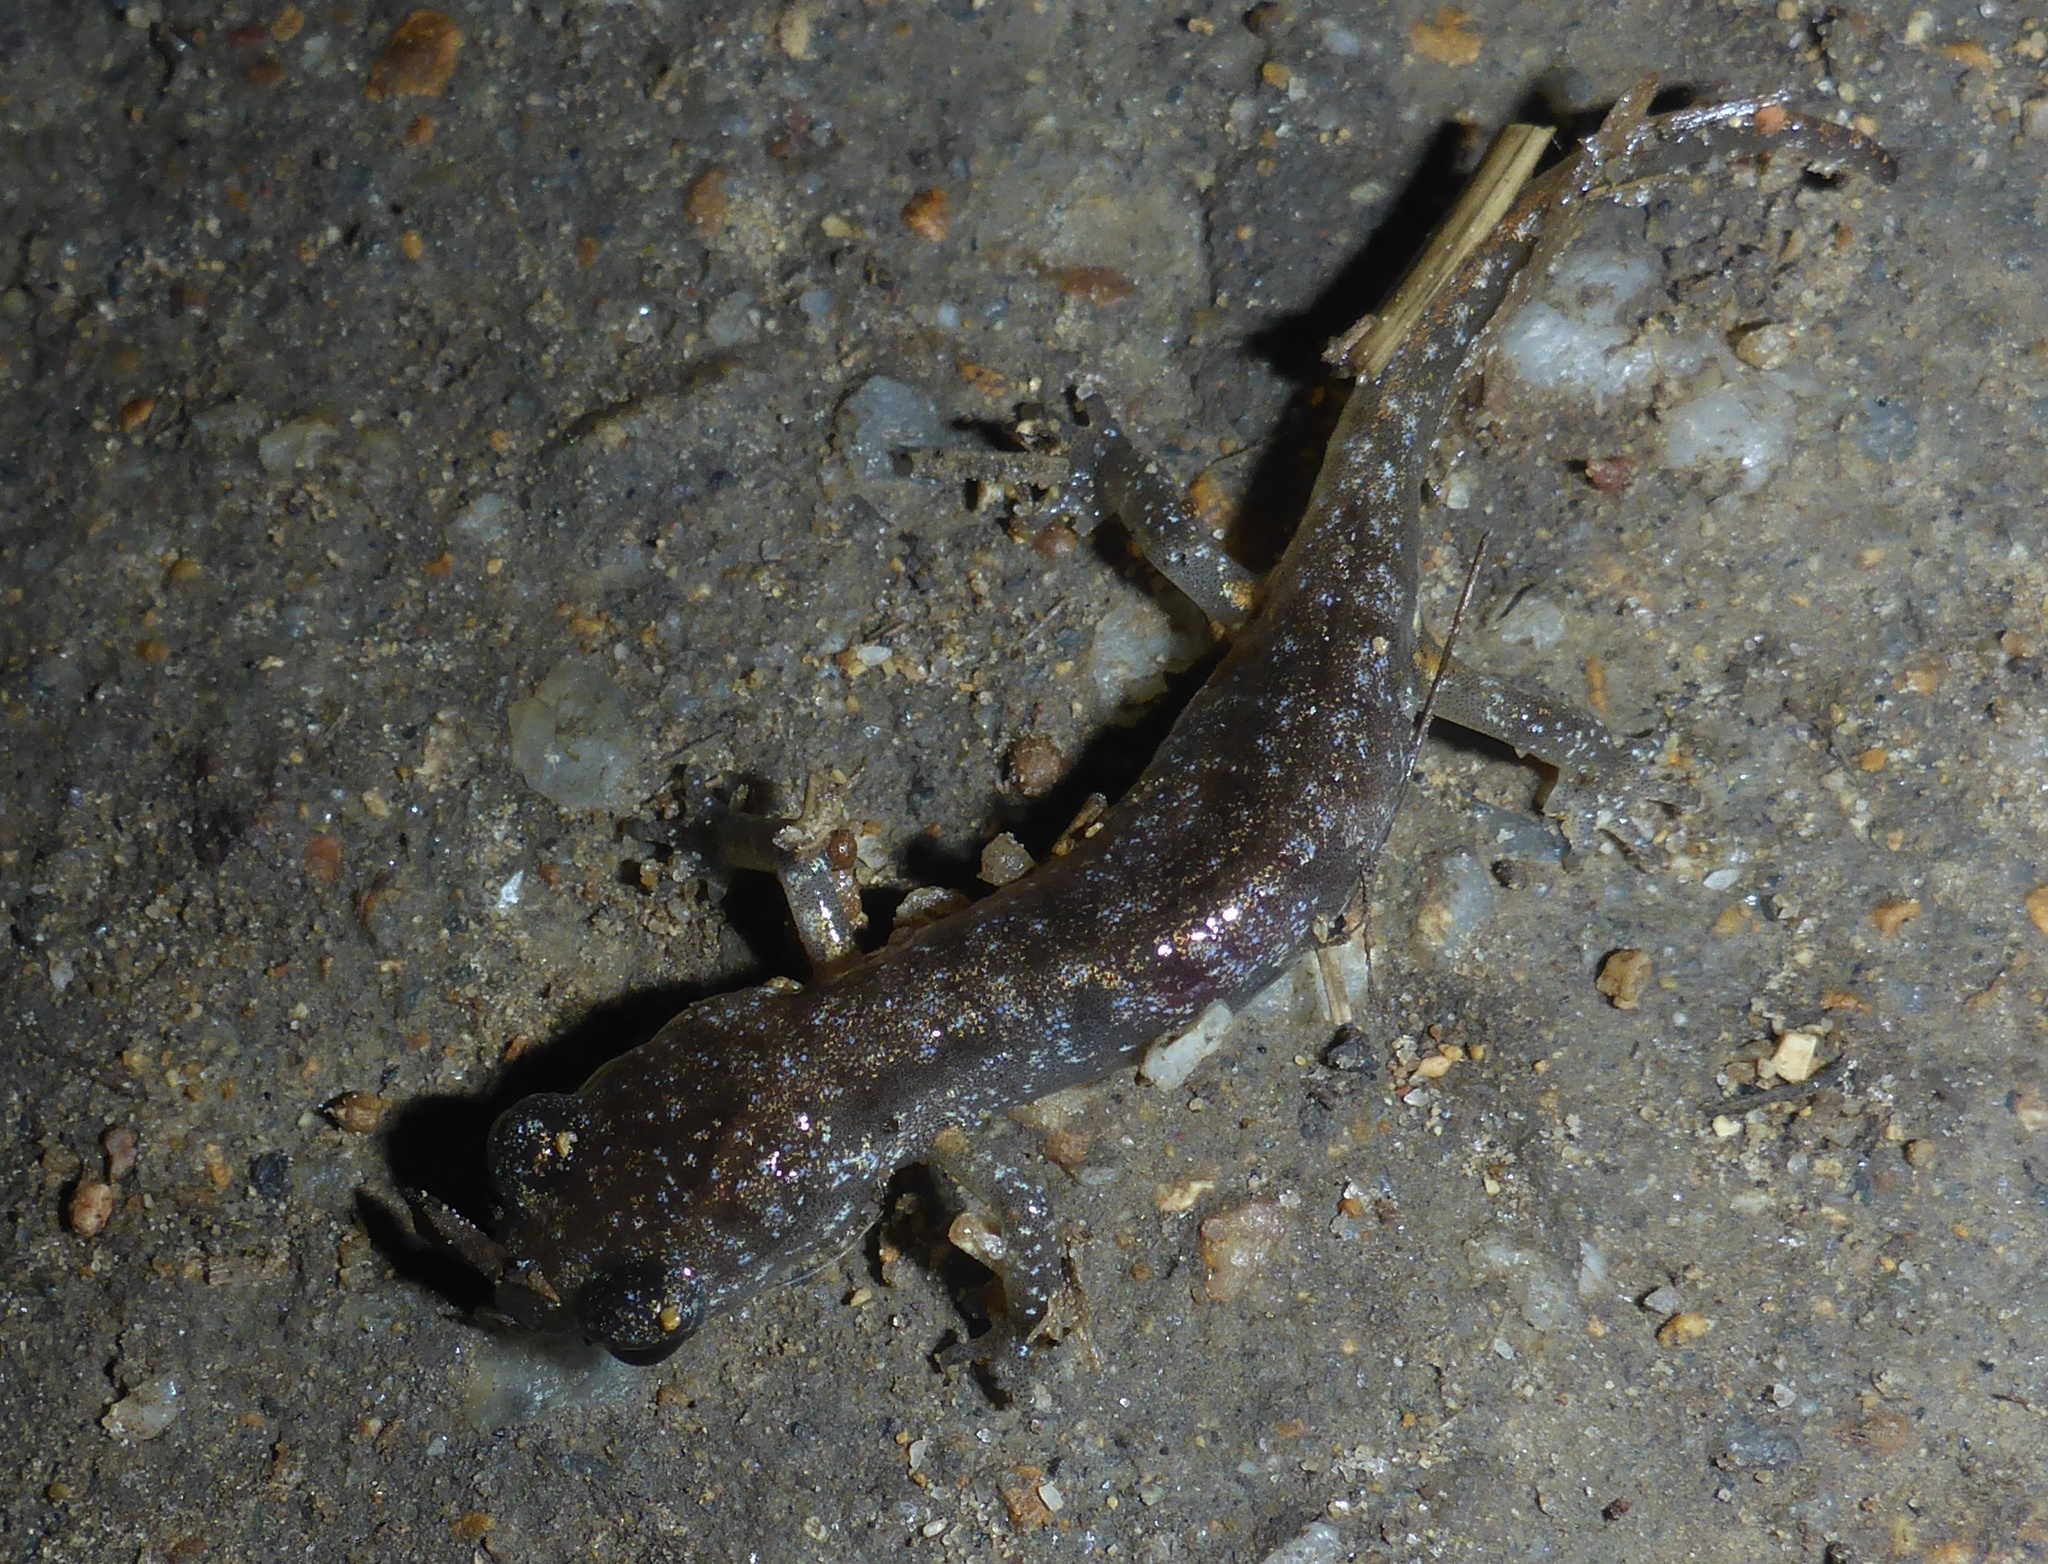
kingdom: Animalia
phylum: Chordata
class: Amphibia
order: Caudata
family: Plethodontidae
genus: Aneides
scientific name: Aneides lugubris
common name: Arboreal salamander
